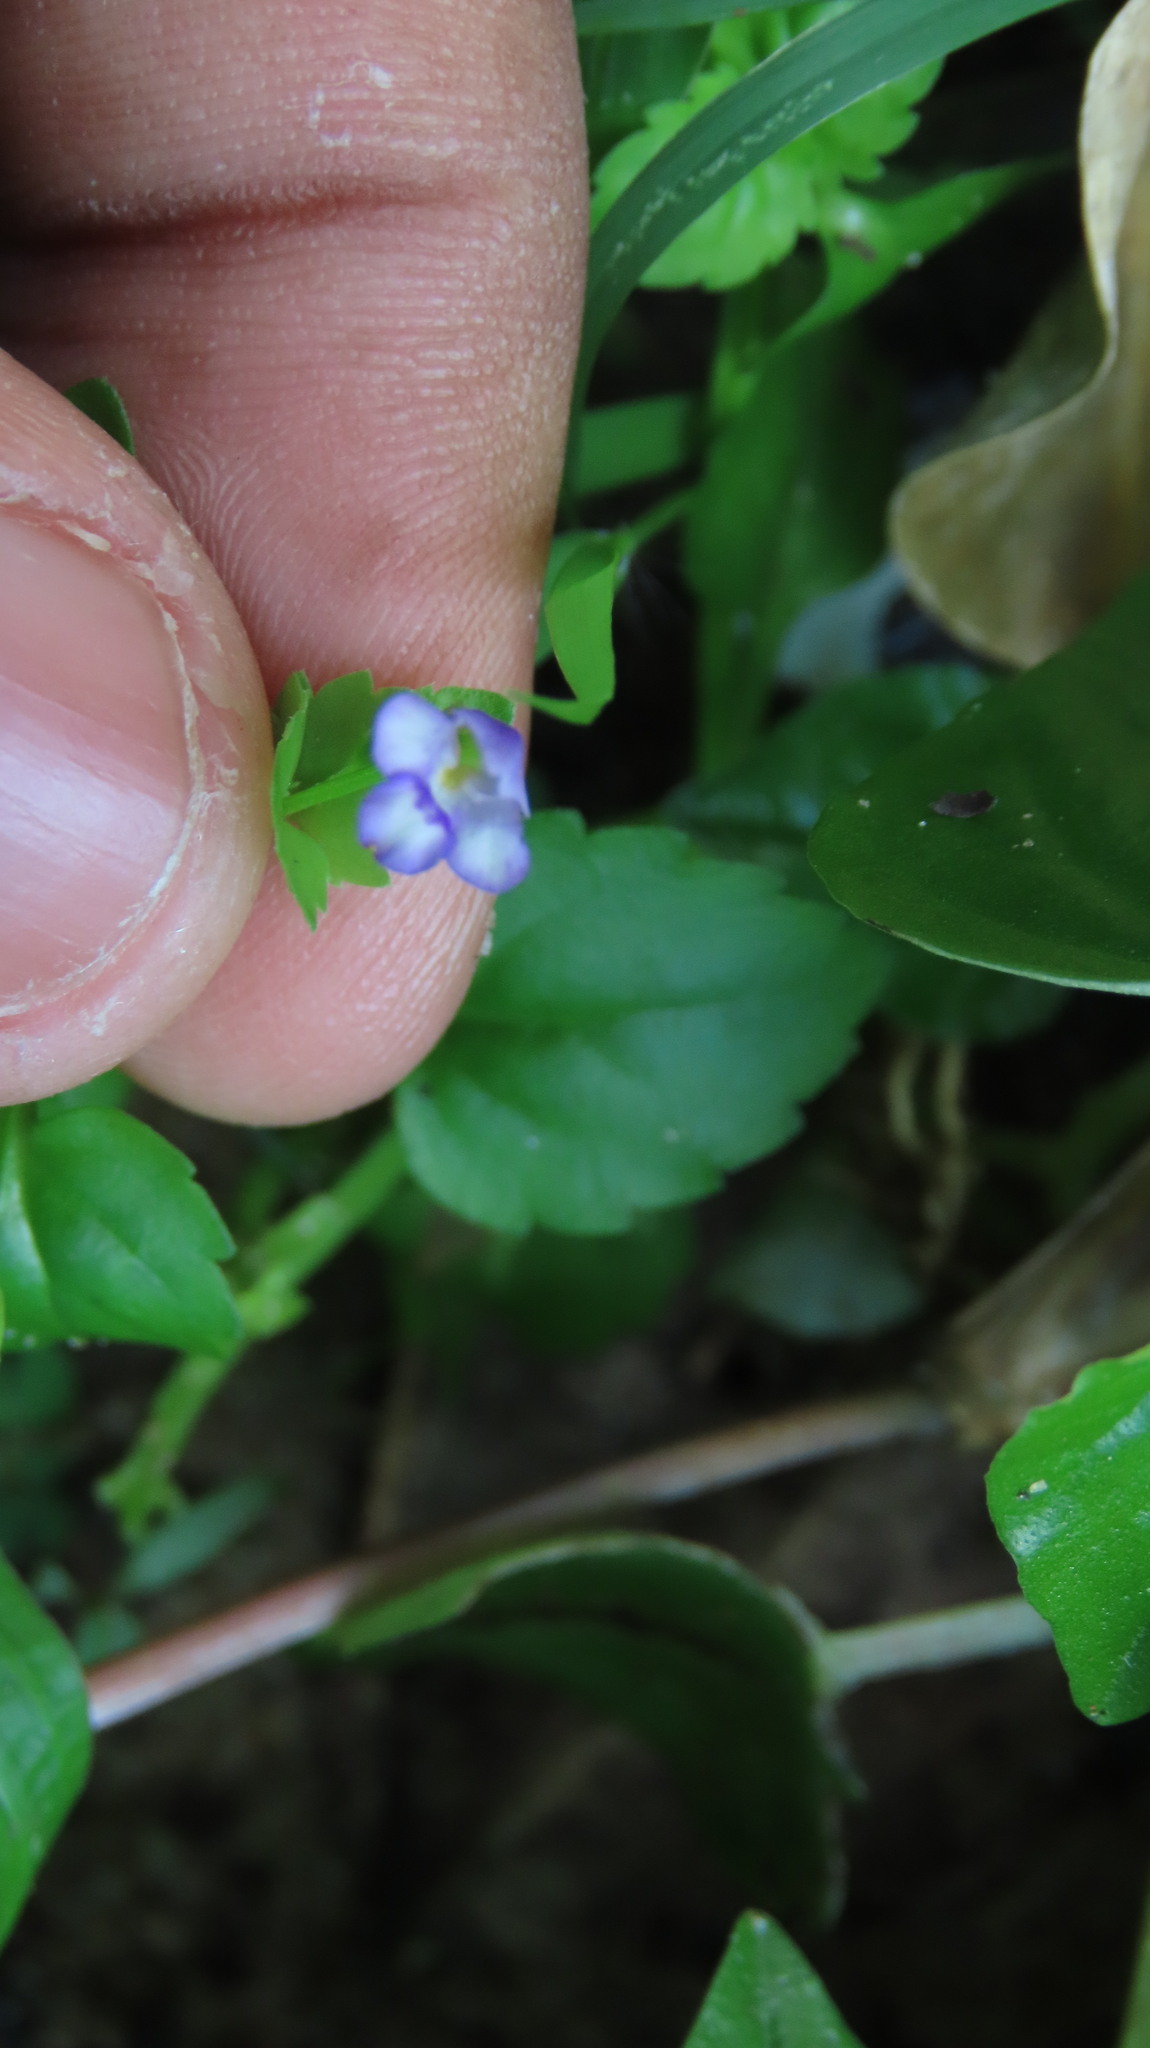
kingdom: Plantae
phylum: Tracheophyta
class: Magnoliopsida
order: Lamiales
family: Linderniaceae
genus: Torenia
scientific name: Torenia crustacea
